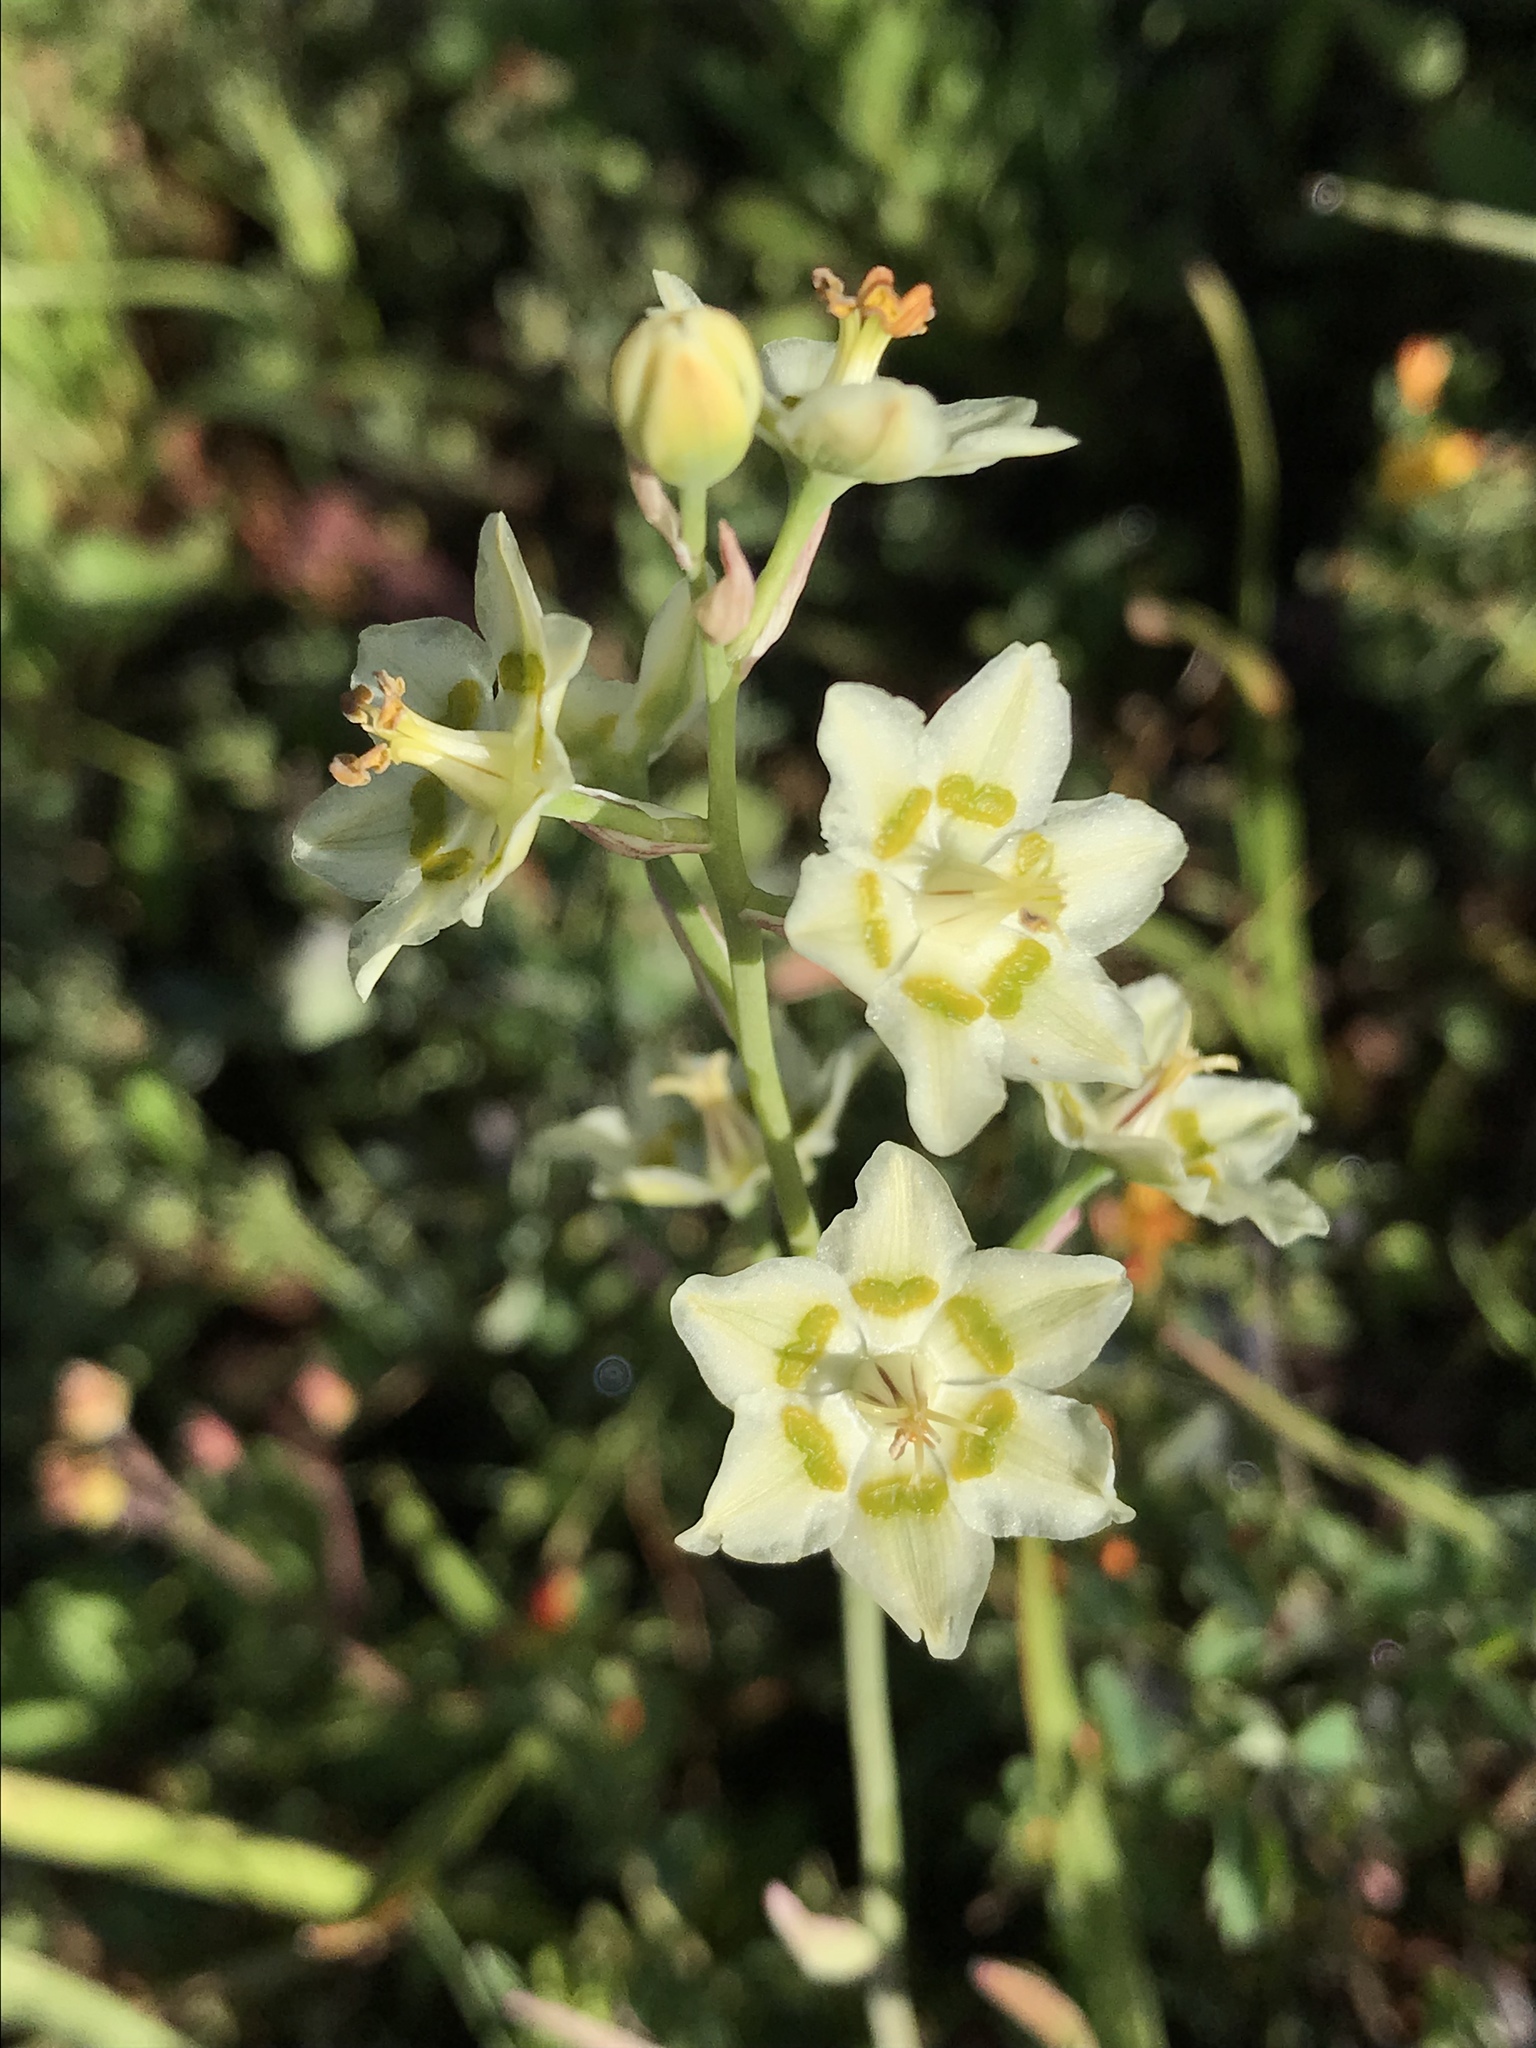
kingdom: Plantae
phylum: Tracheophyta
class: Liliopsida
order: Liliales
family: Melanthiaceae
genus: Anticlea
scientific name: Anticlea elegans
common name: Mountain death camas
